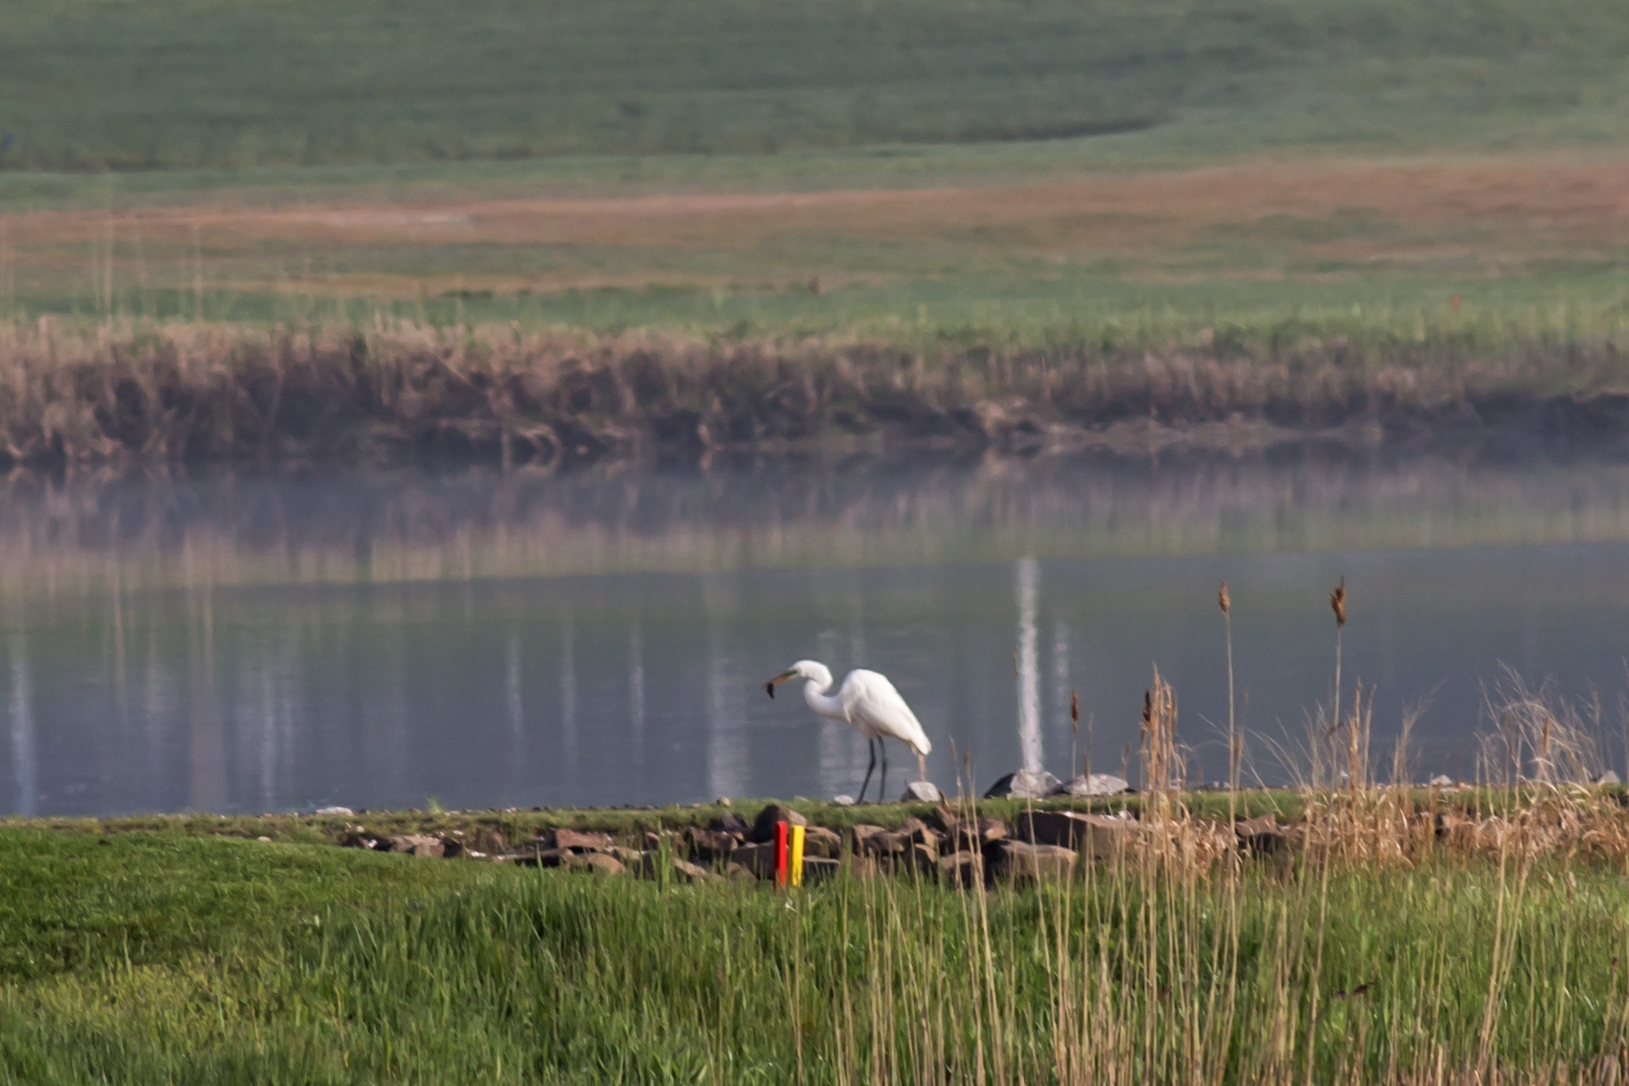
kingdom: Animalia
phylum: Chordata
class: Aves
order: Pelecaniformes
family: Ardeidae
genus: Ardea
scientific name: Ardea alba
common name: Great egret
